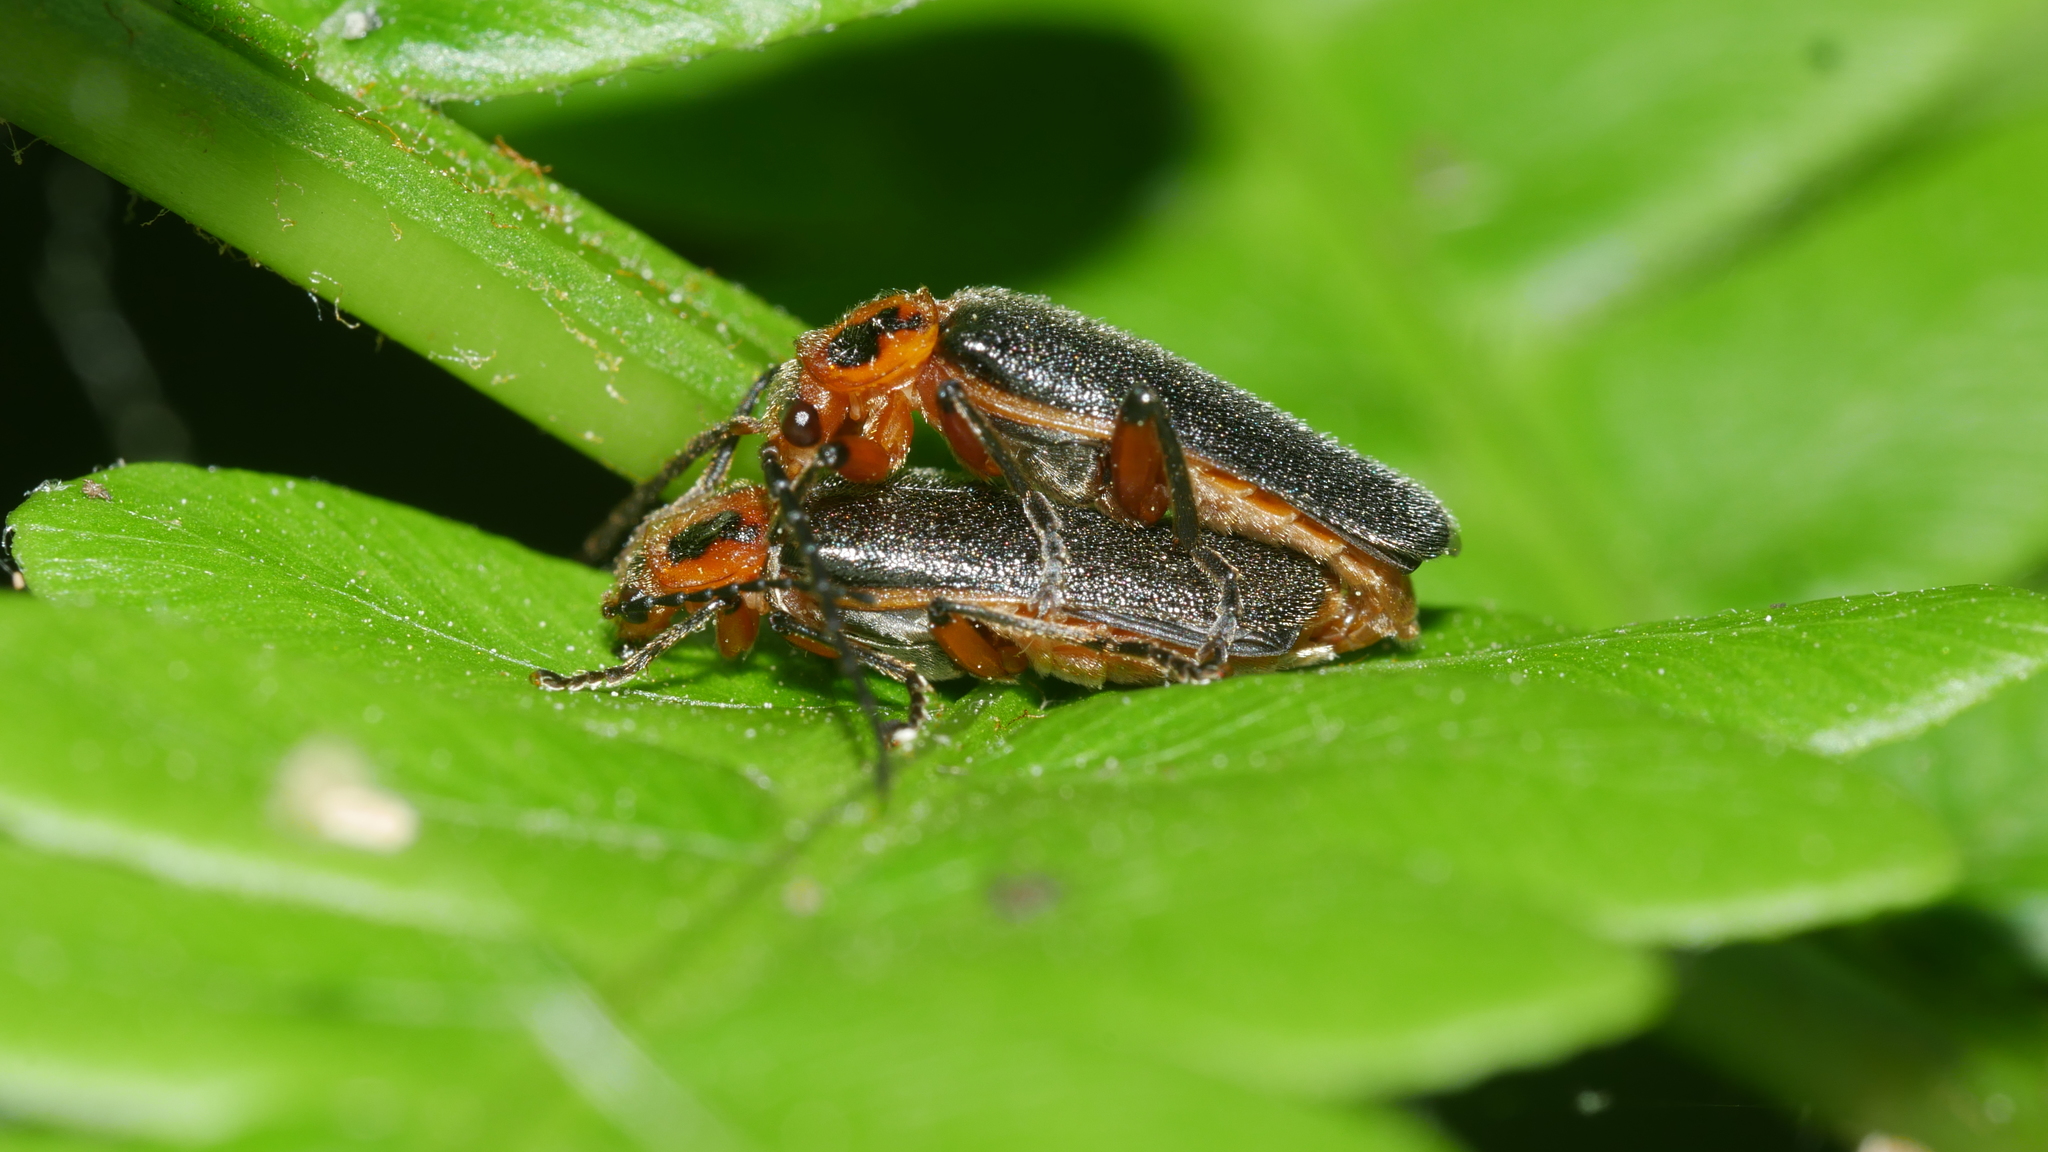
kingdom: Animalia
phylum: Arthropoda
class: Insecta
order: Coleoptera
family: Cantharidae
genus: Atalantycha
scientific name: Atalantycha bilineata
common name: Two-lined leatherwing
